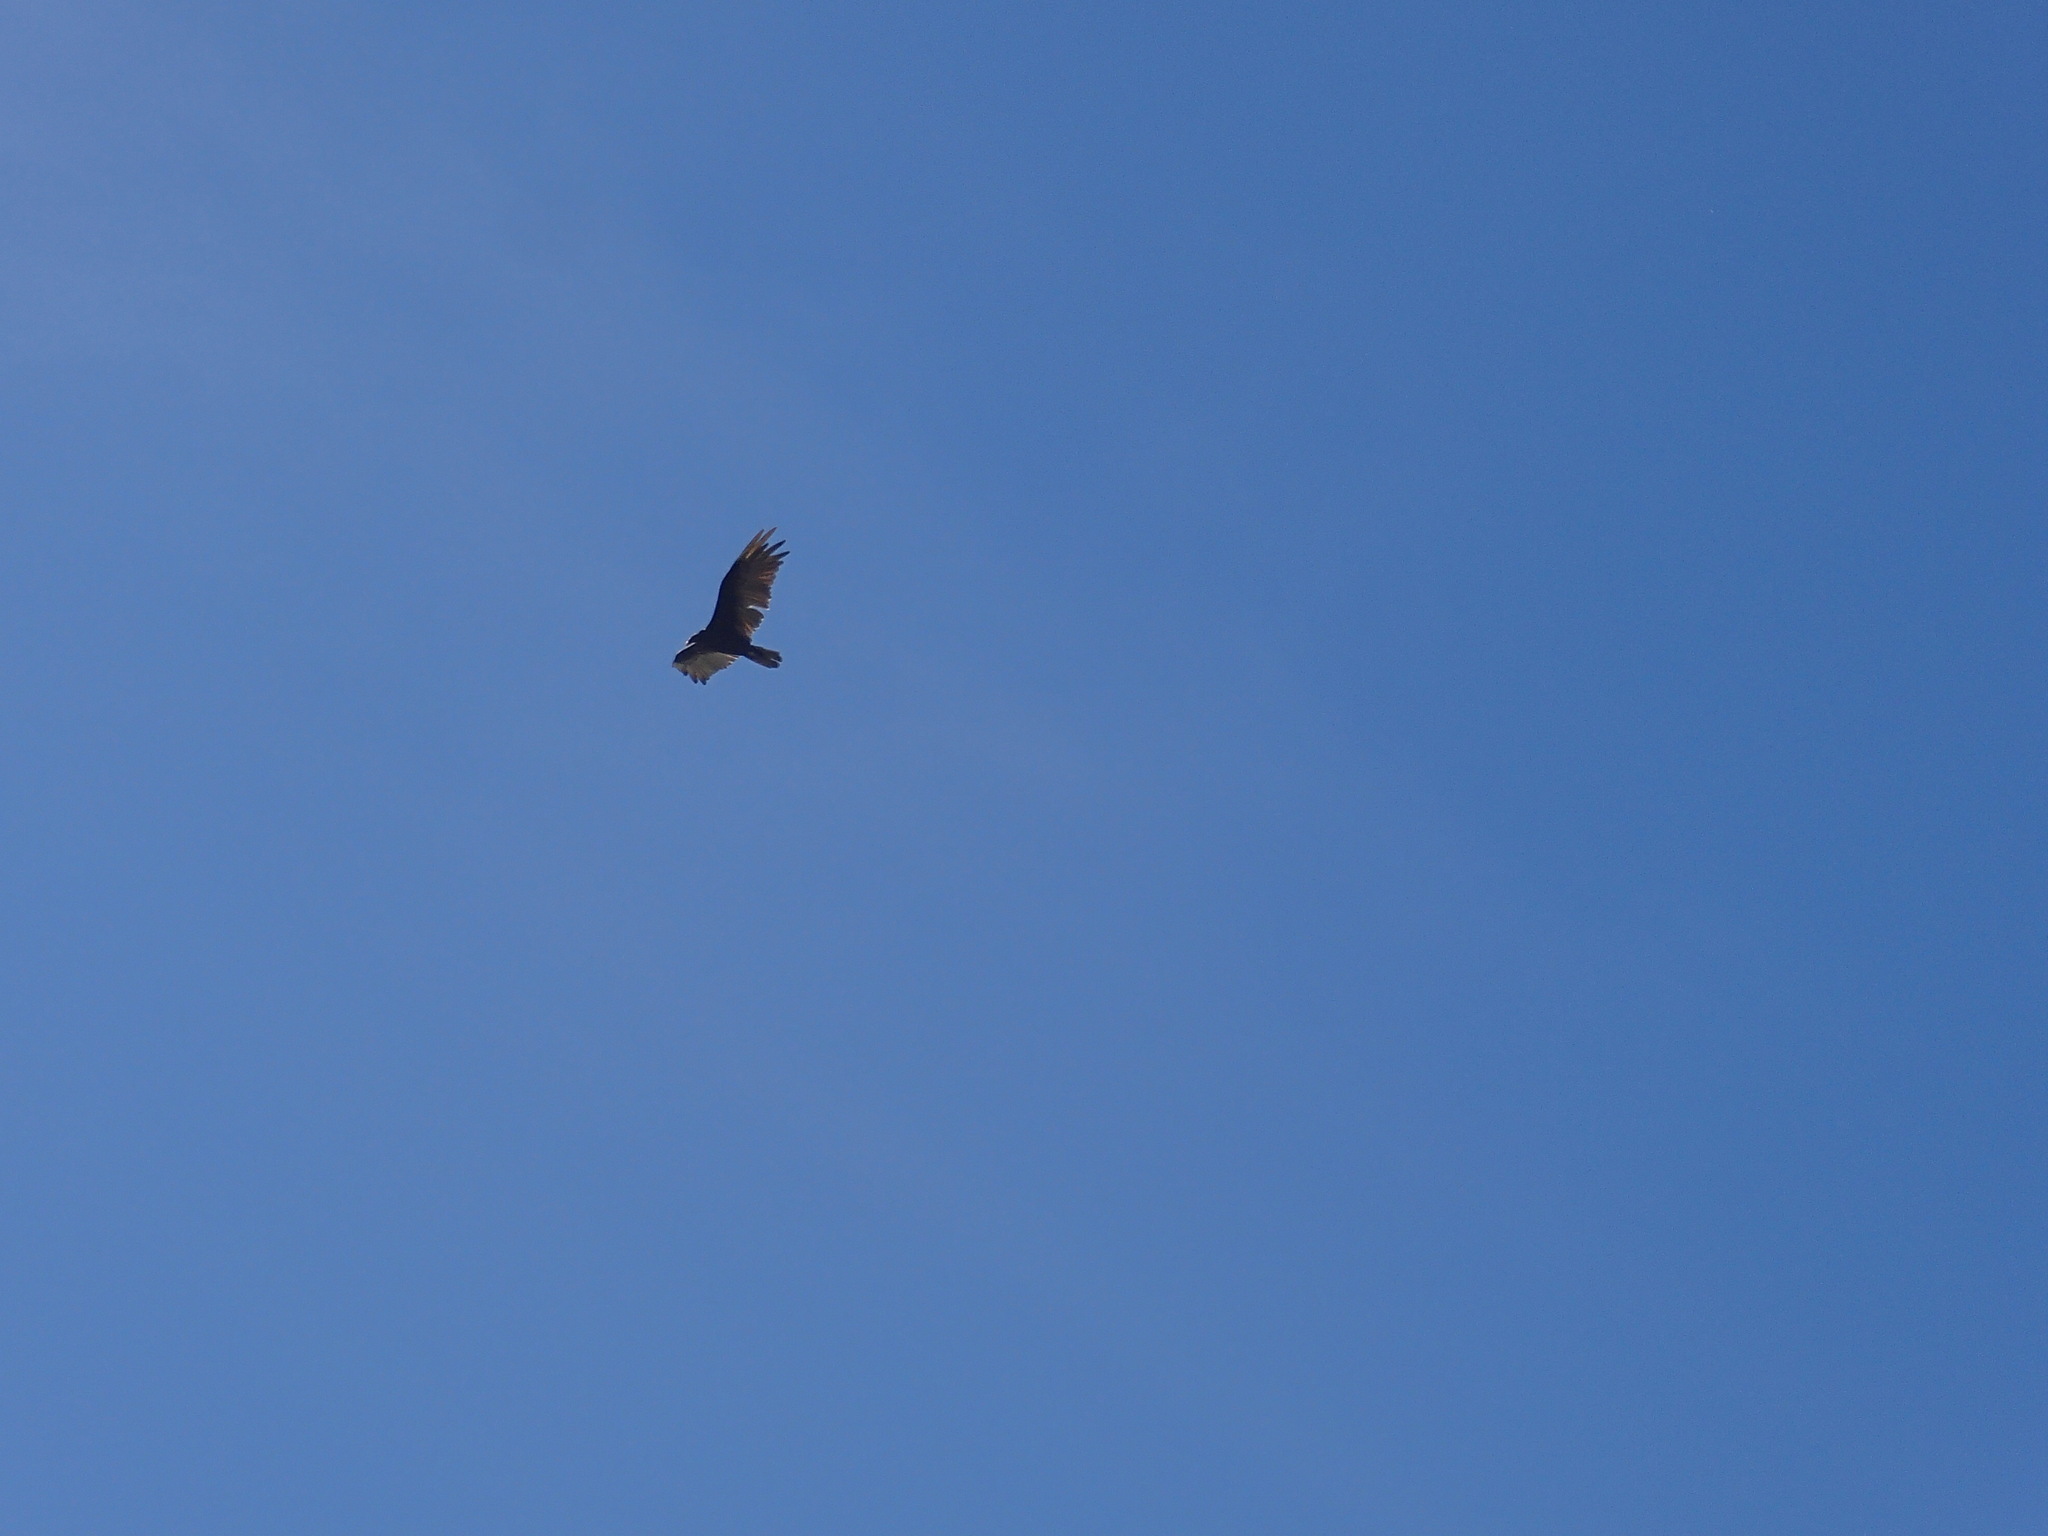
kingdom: Animalia
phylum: Chordata
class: Aves
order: Accipitriformes
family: Cathartidae
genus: Cathartes
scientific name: Cathartes aura
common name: Turkey vulture
